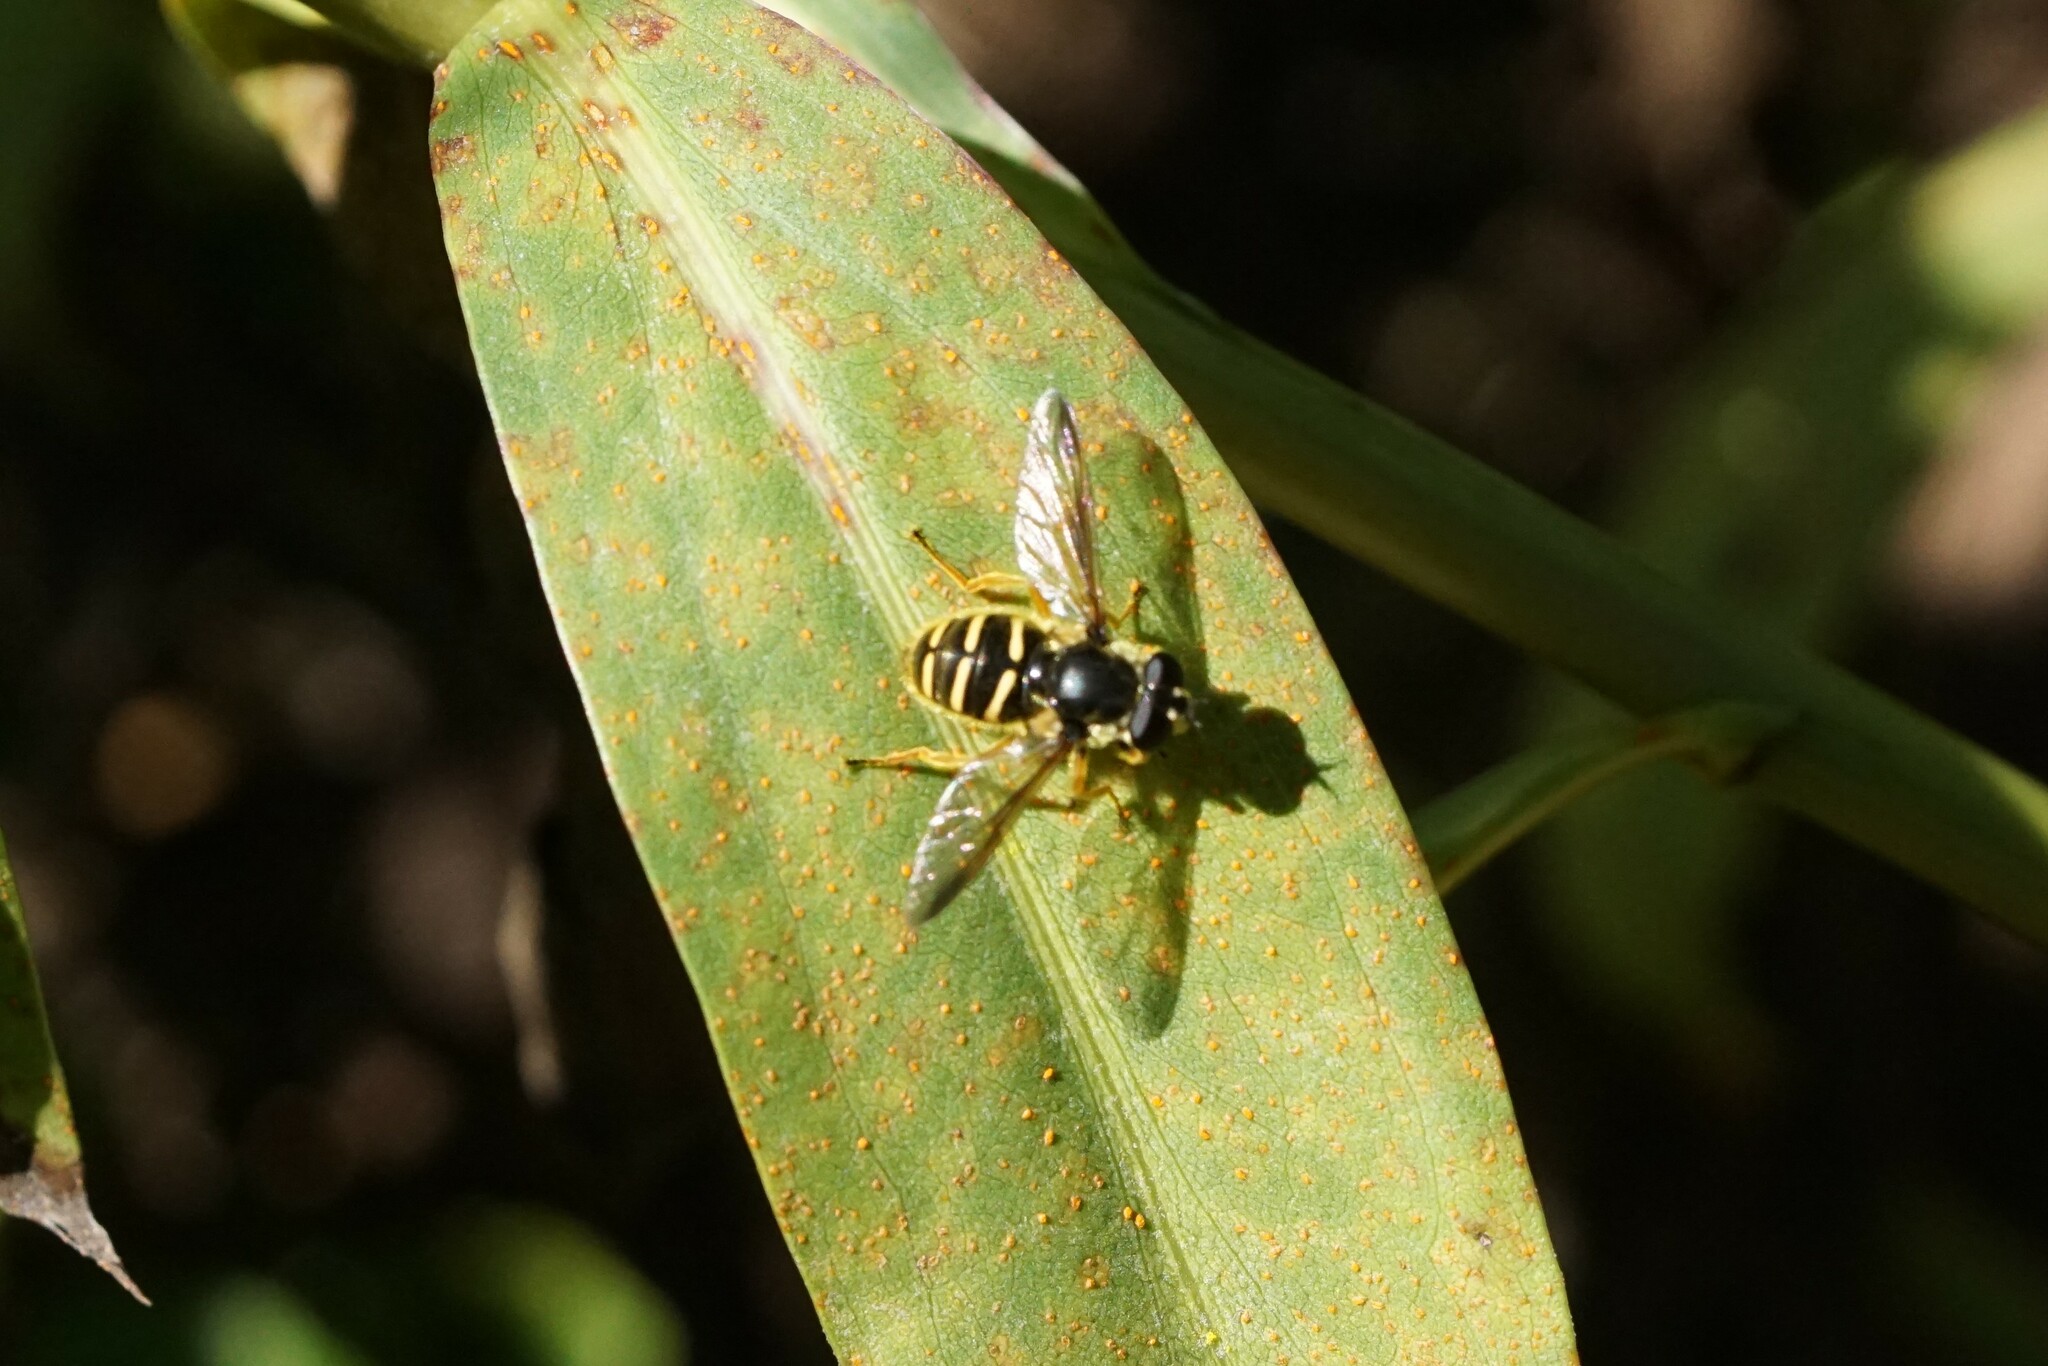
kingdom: Animalia
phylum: Arthropoda
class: Insecta
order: Diptera
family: Syrphidae
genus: Sericomyia
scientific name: Sericomyia chrysotoxoides
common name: Oblique-banded pond fly
